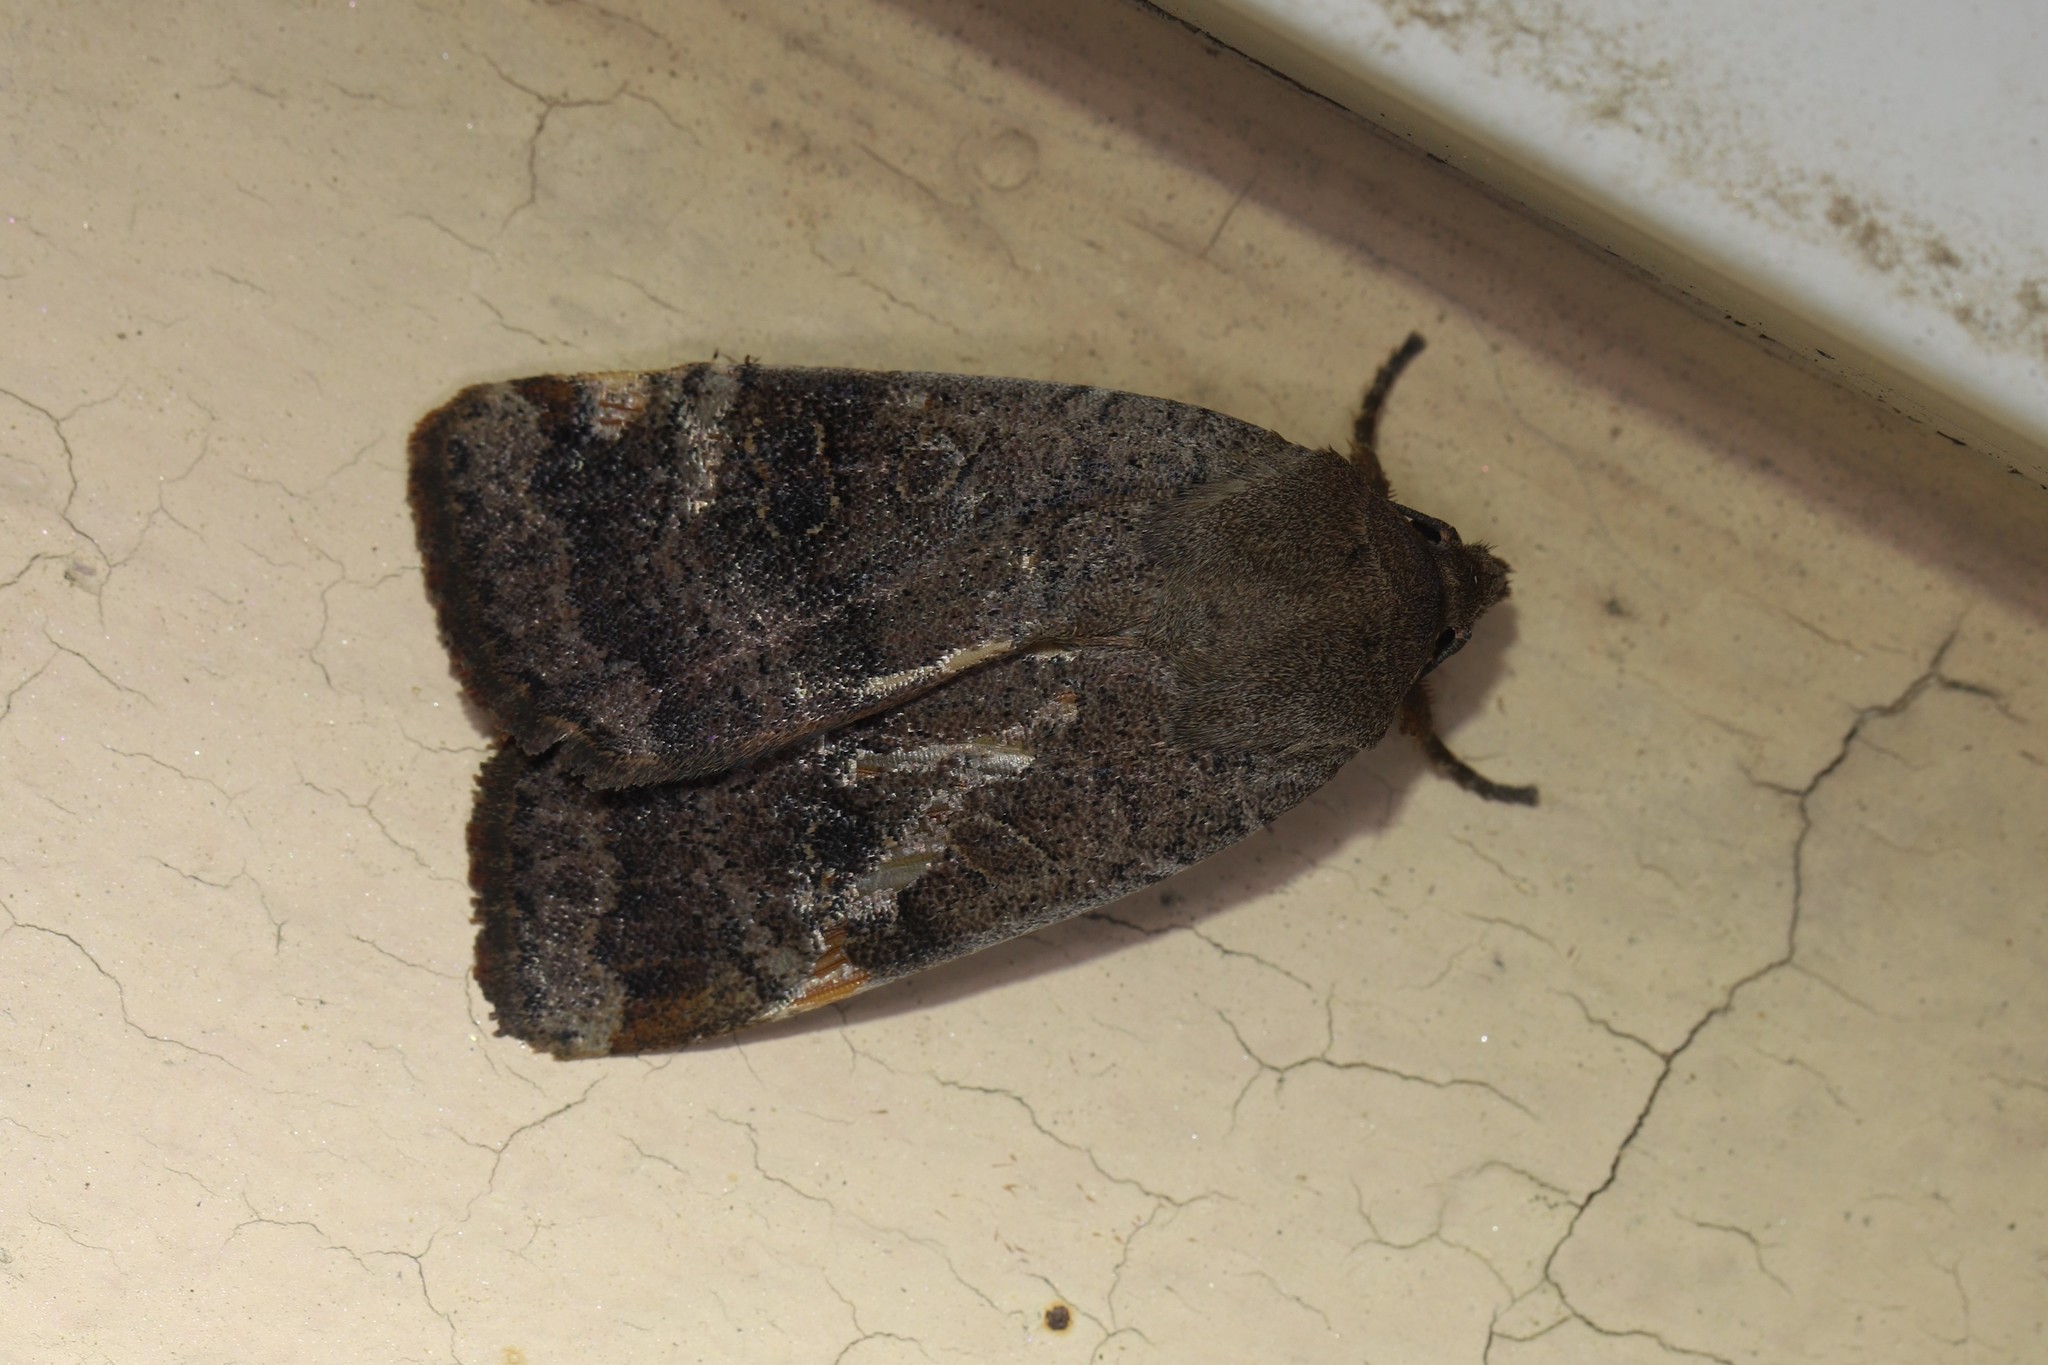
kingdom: Animalia
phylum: Arthropoda
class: Insecta
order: Lepidoptera
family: Noctuidae
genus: Noctua
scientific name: Noctua comes
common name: Lesser yellow underwing
